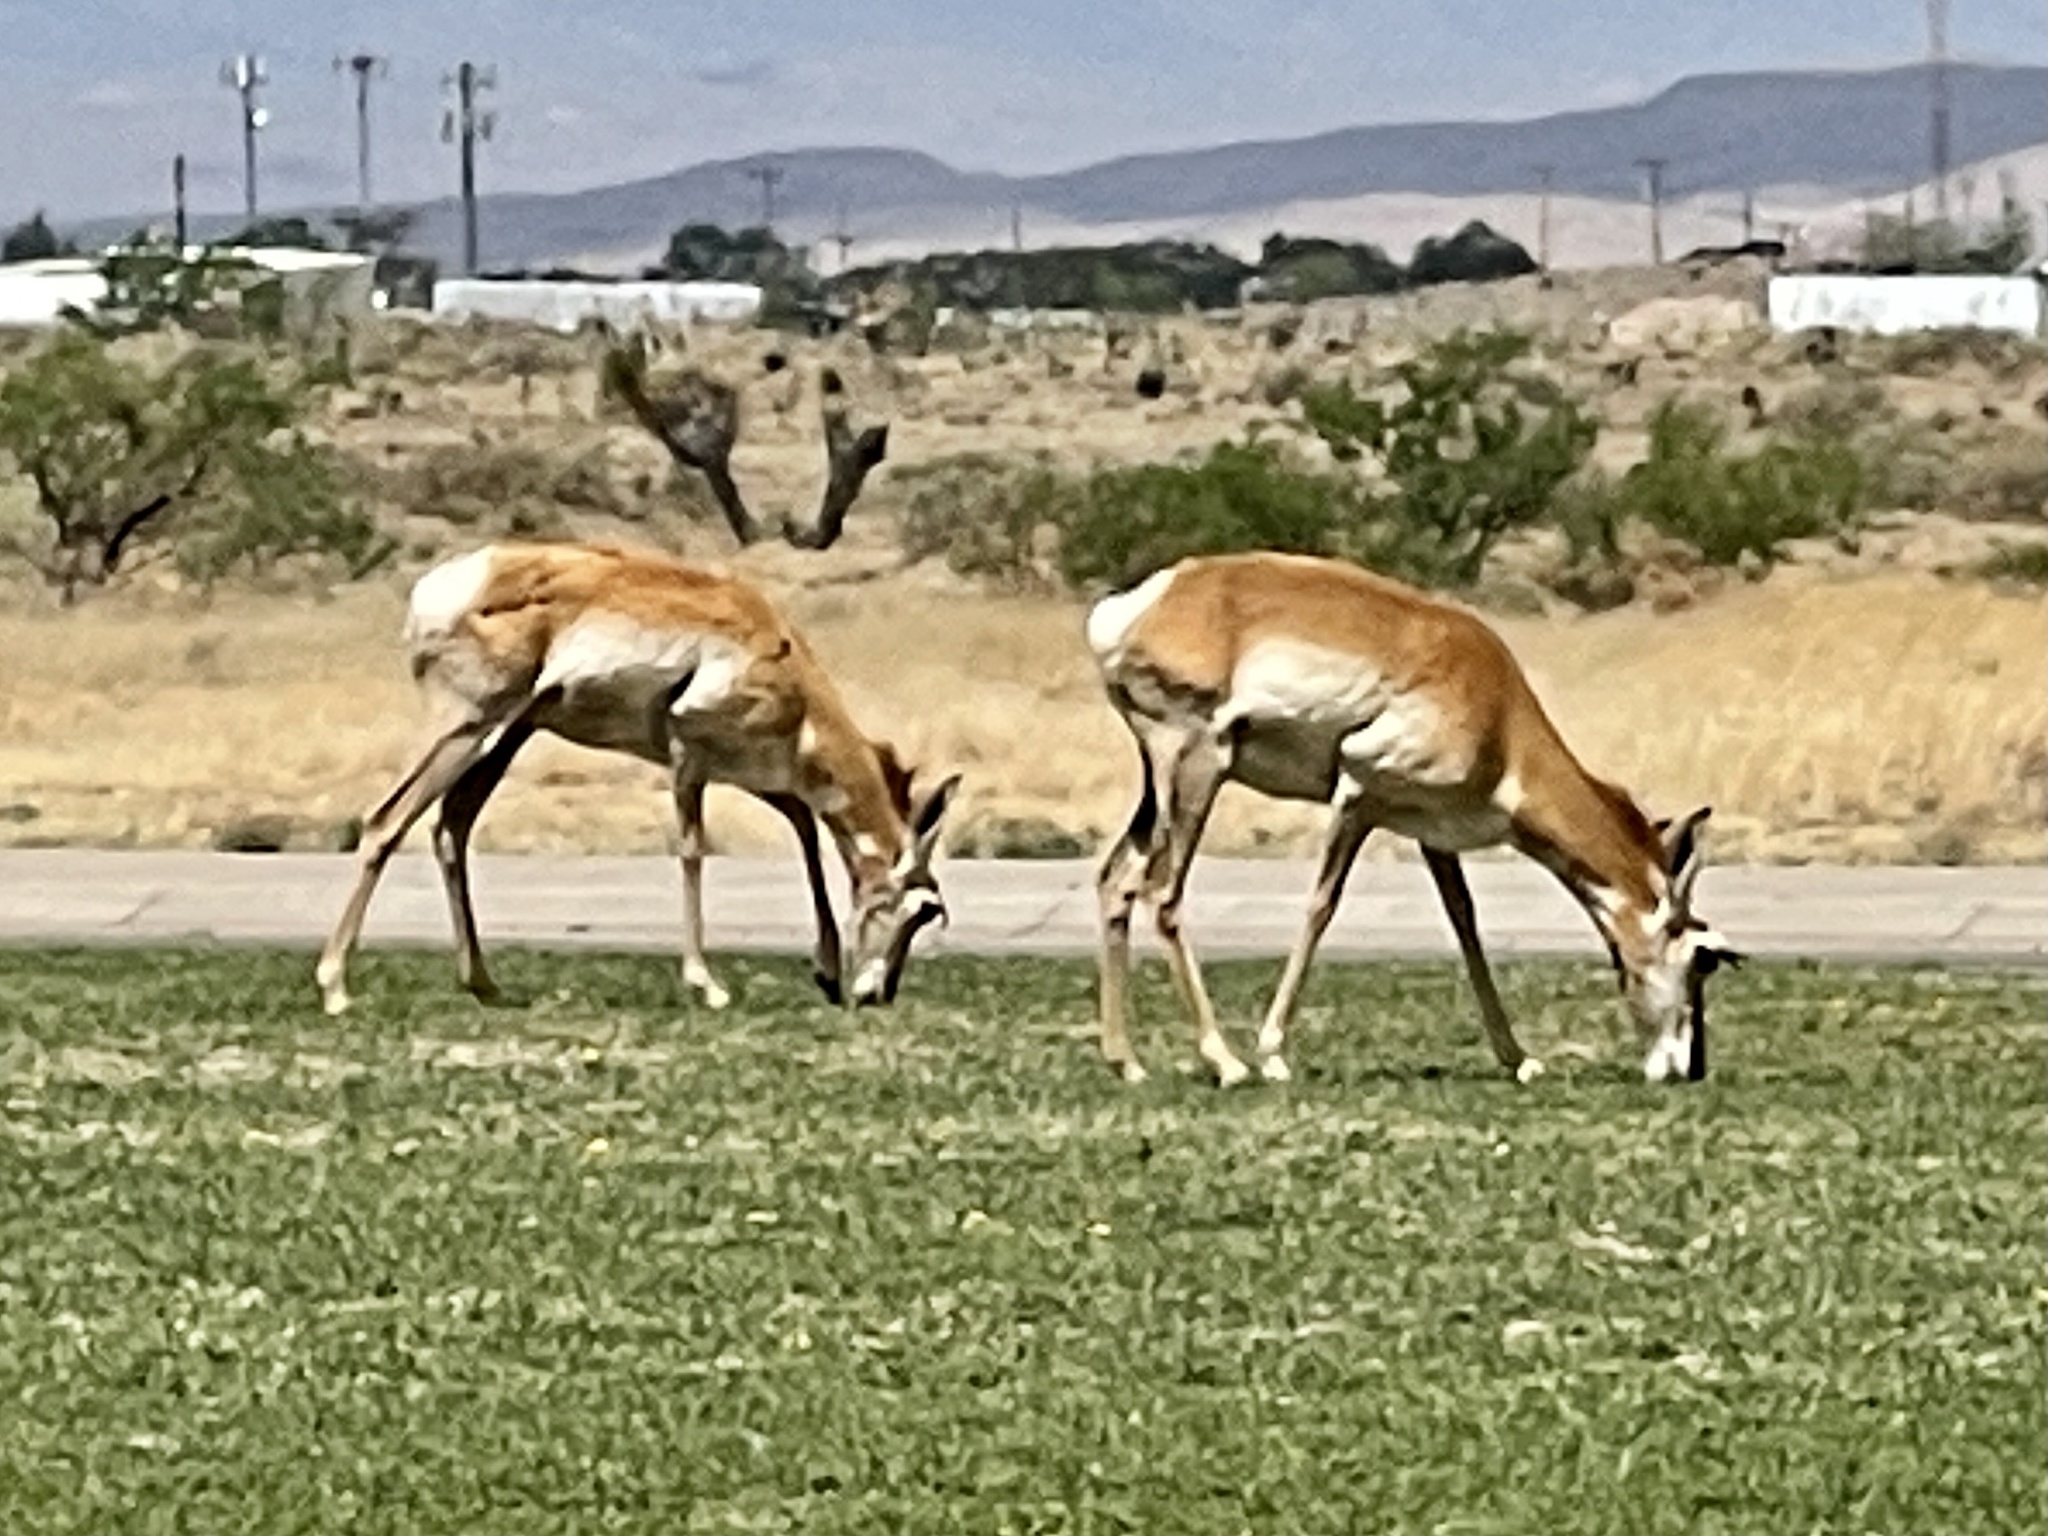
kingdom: Animalia
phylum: Chordata
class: Mammalia
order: Artiodactyla
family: Antilocapridae
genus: Antilocapra
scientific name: Antilocapra americana
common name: Pronghorn
